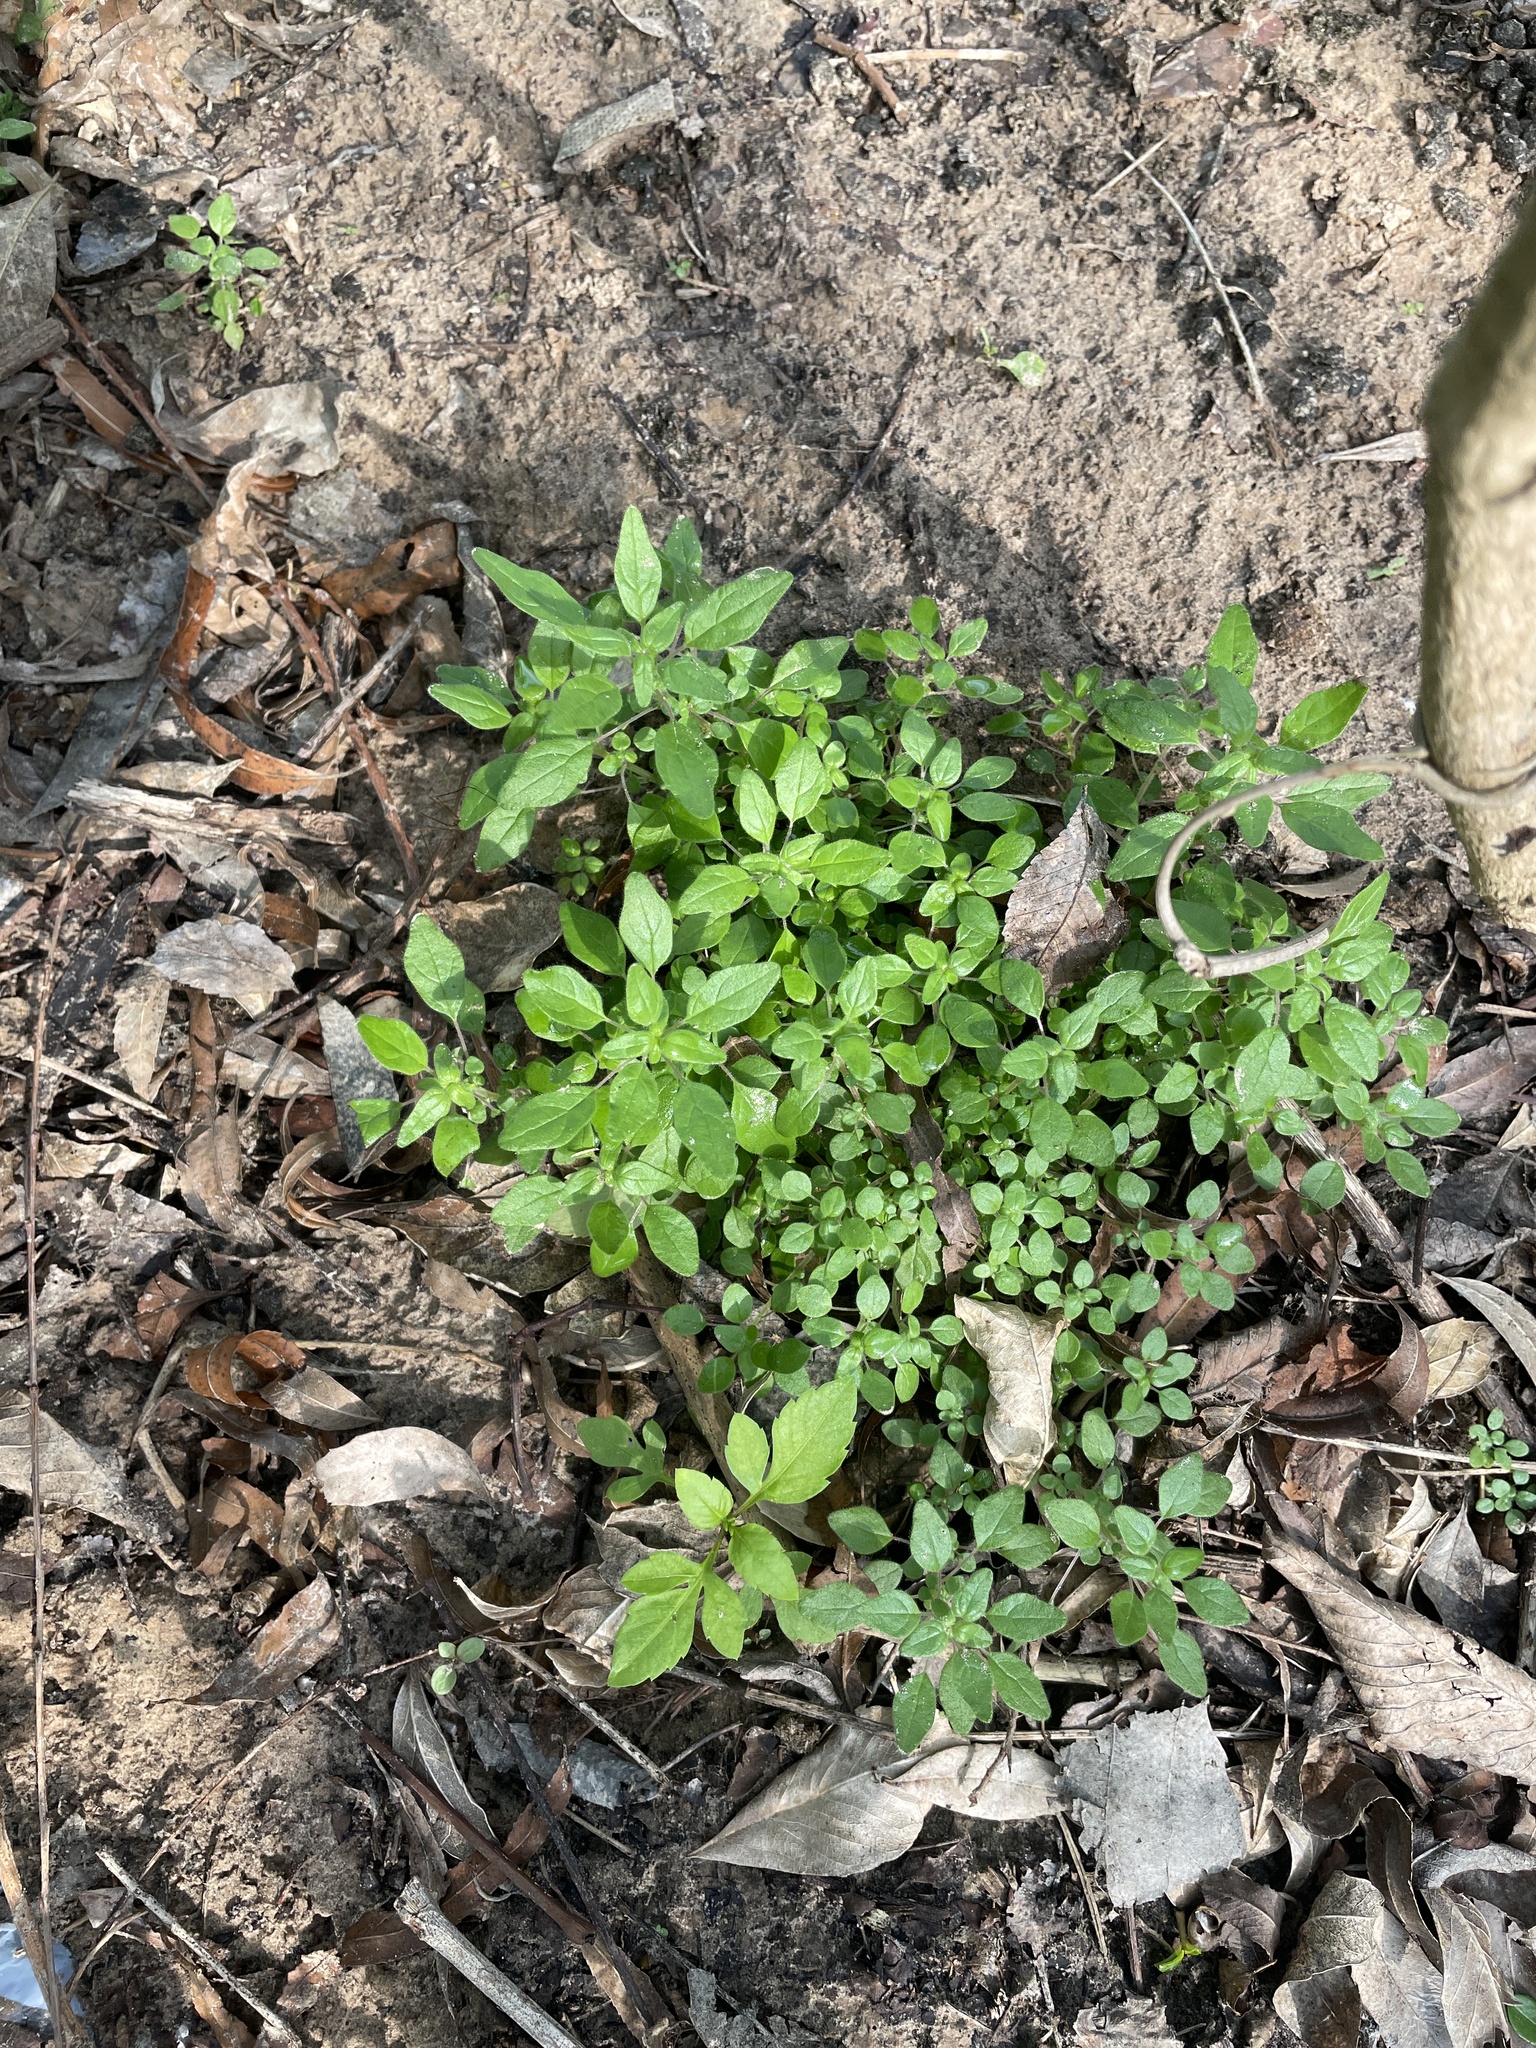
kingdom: Plantae
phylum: Tracheophyta
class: Magnoliopsida
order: Rosales
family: Urticaceae
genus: Parietaria
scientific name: Parietaria pensylvanica
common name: Pennsylvania pellitory
